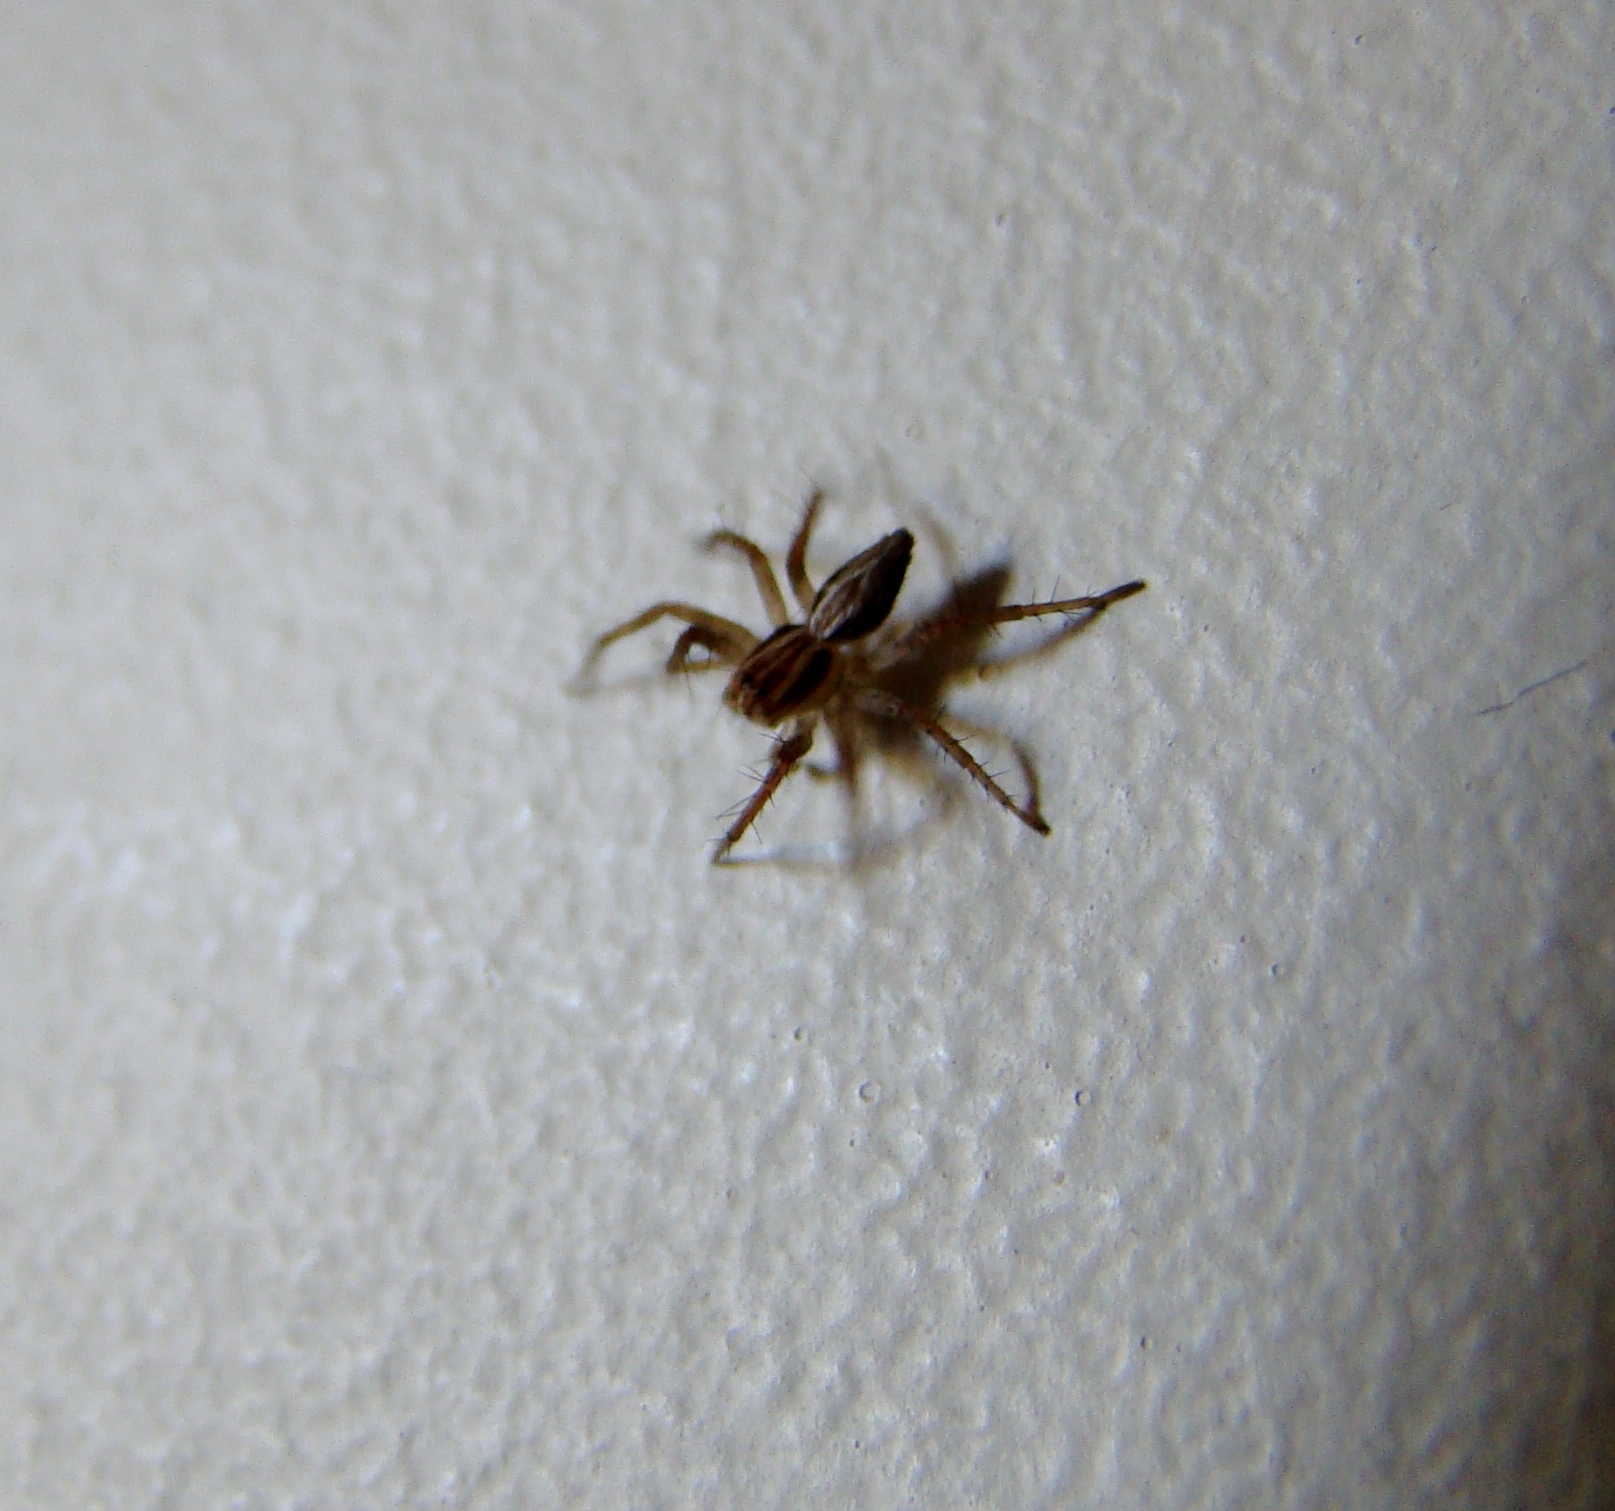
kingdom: Animalia
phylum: Arthropoda
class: Arachnida
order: Araneae
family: Oxyopidae
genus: Oxyopes
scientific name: Oxyopes gracilipes
